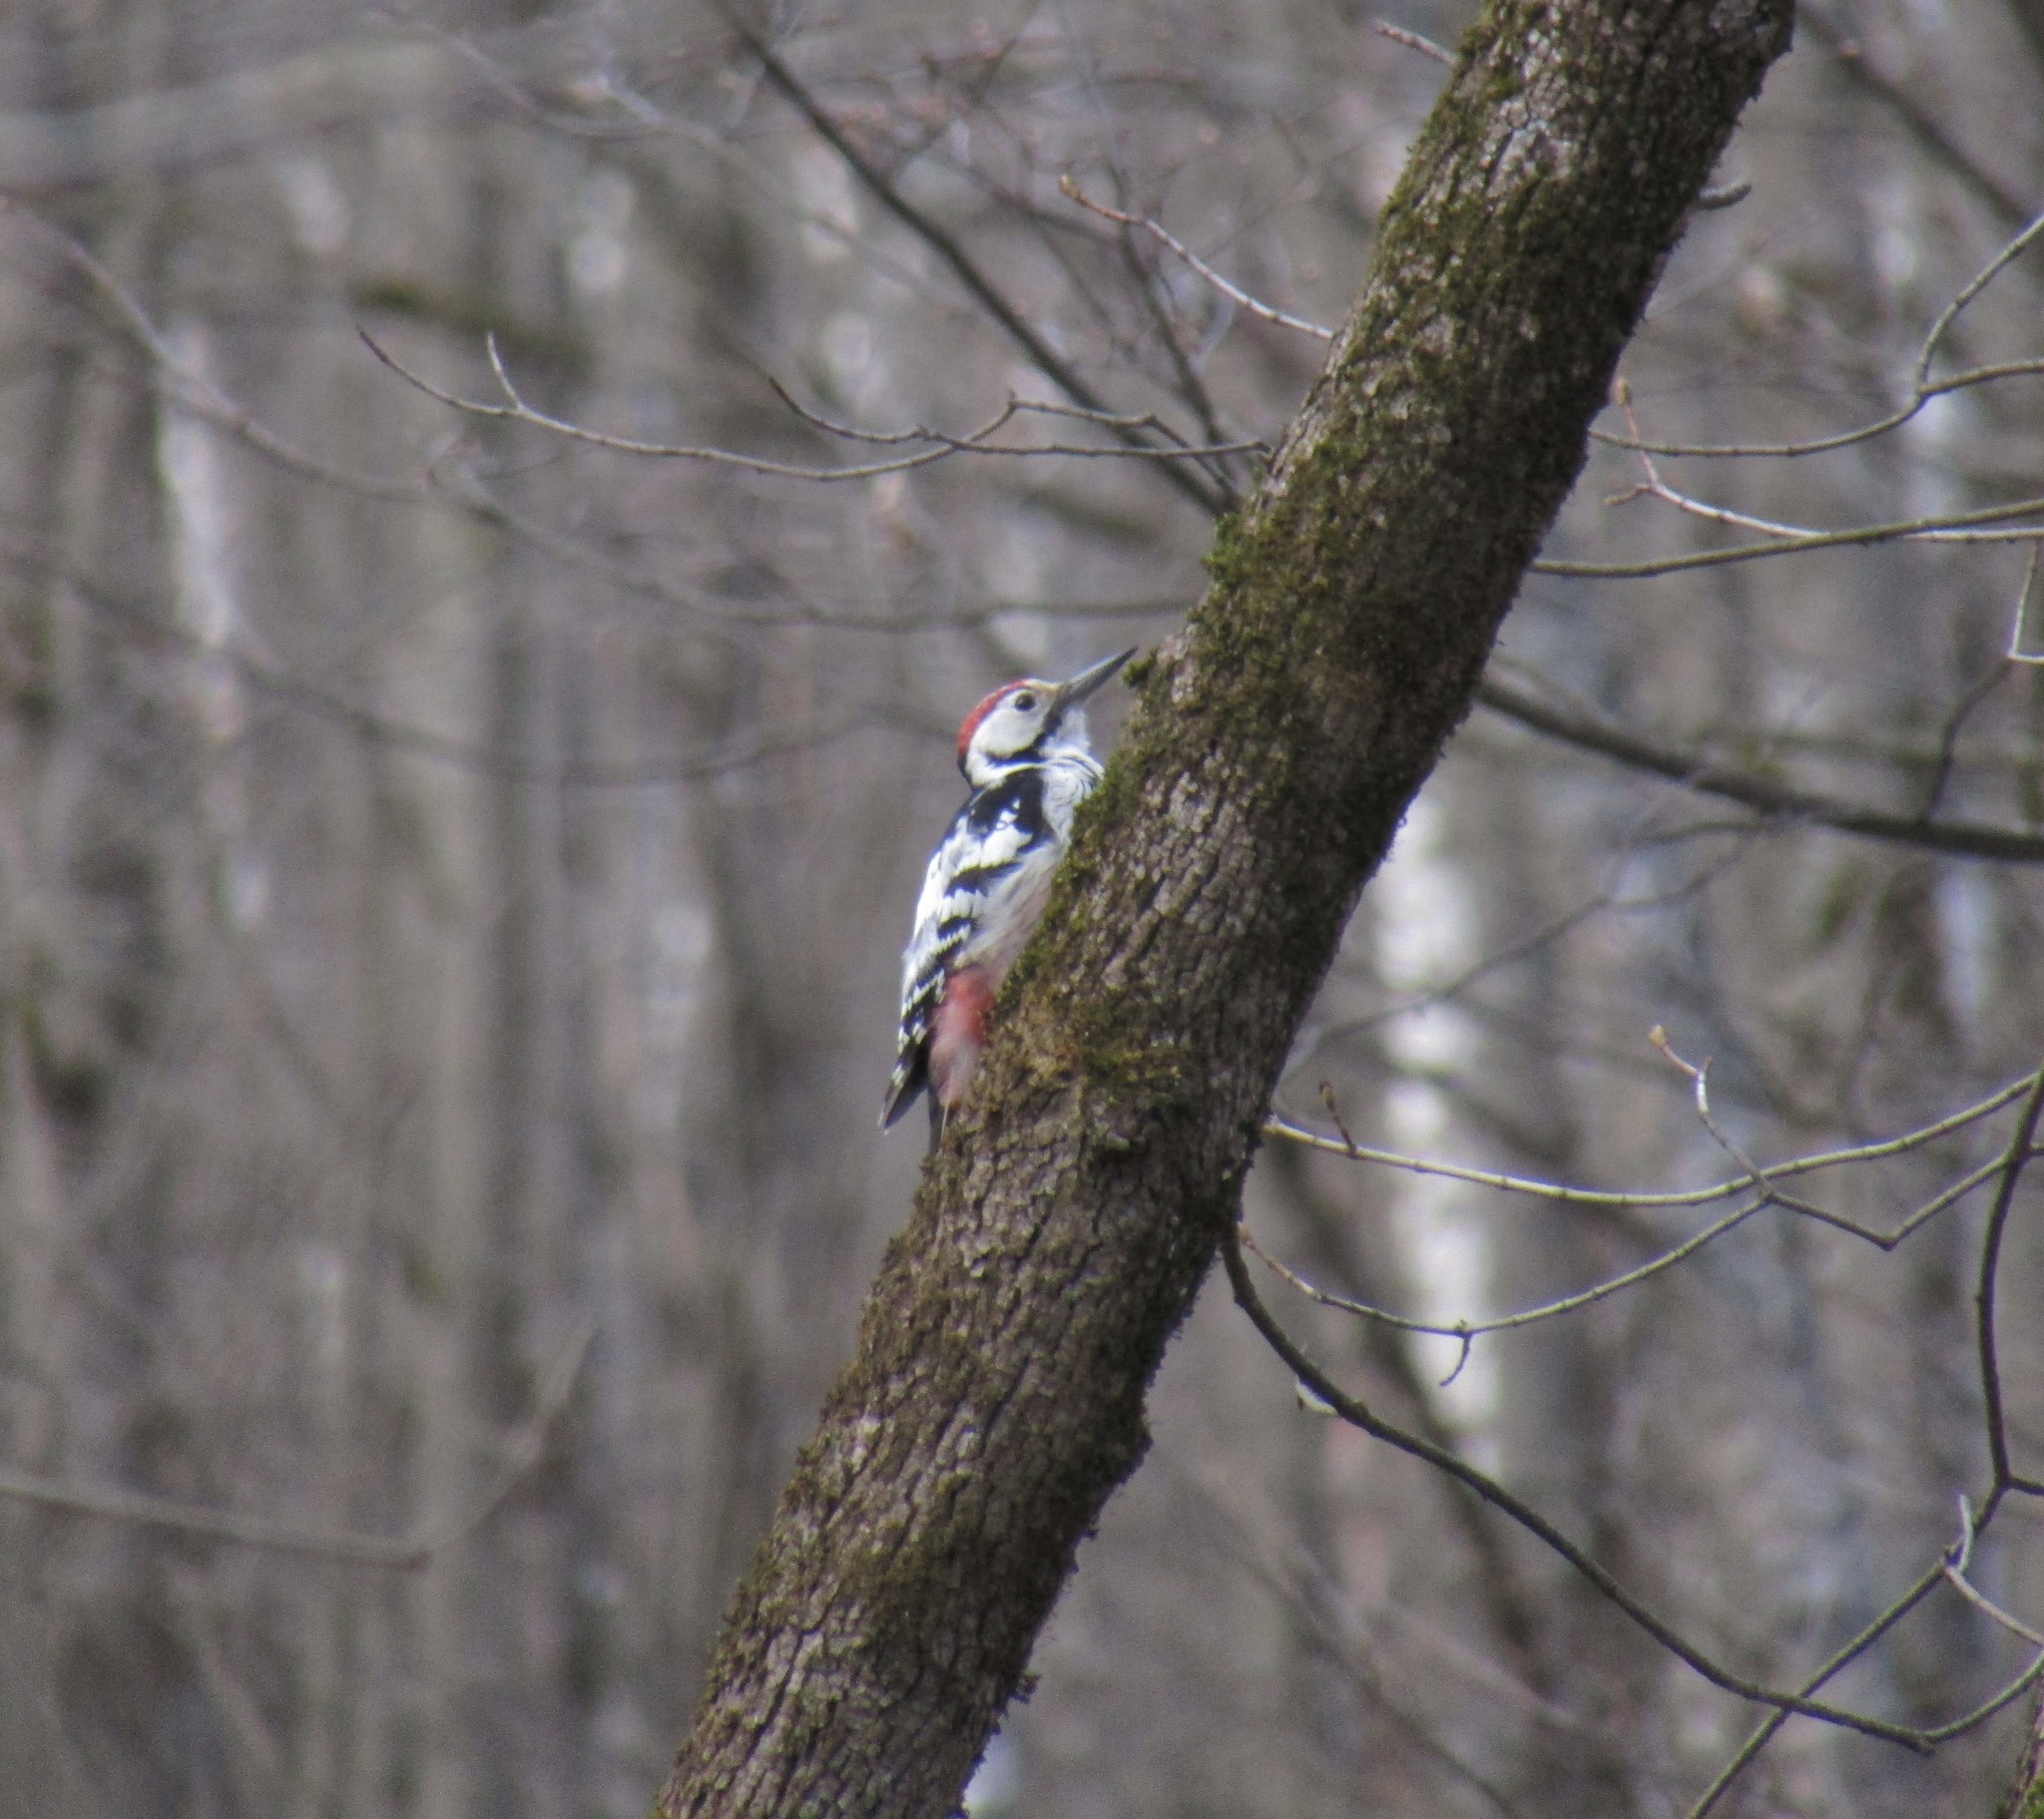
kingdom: Animalia
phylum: Chordata
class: Aves
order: Piciformes
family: Picidae
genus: Dendrocopos
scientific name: Dendrocopos leucotos
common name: White-backed woodpecker
